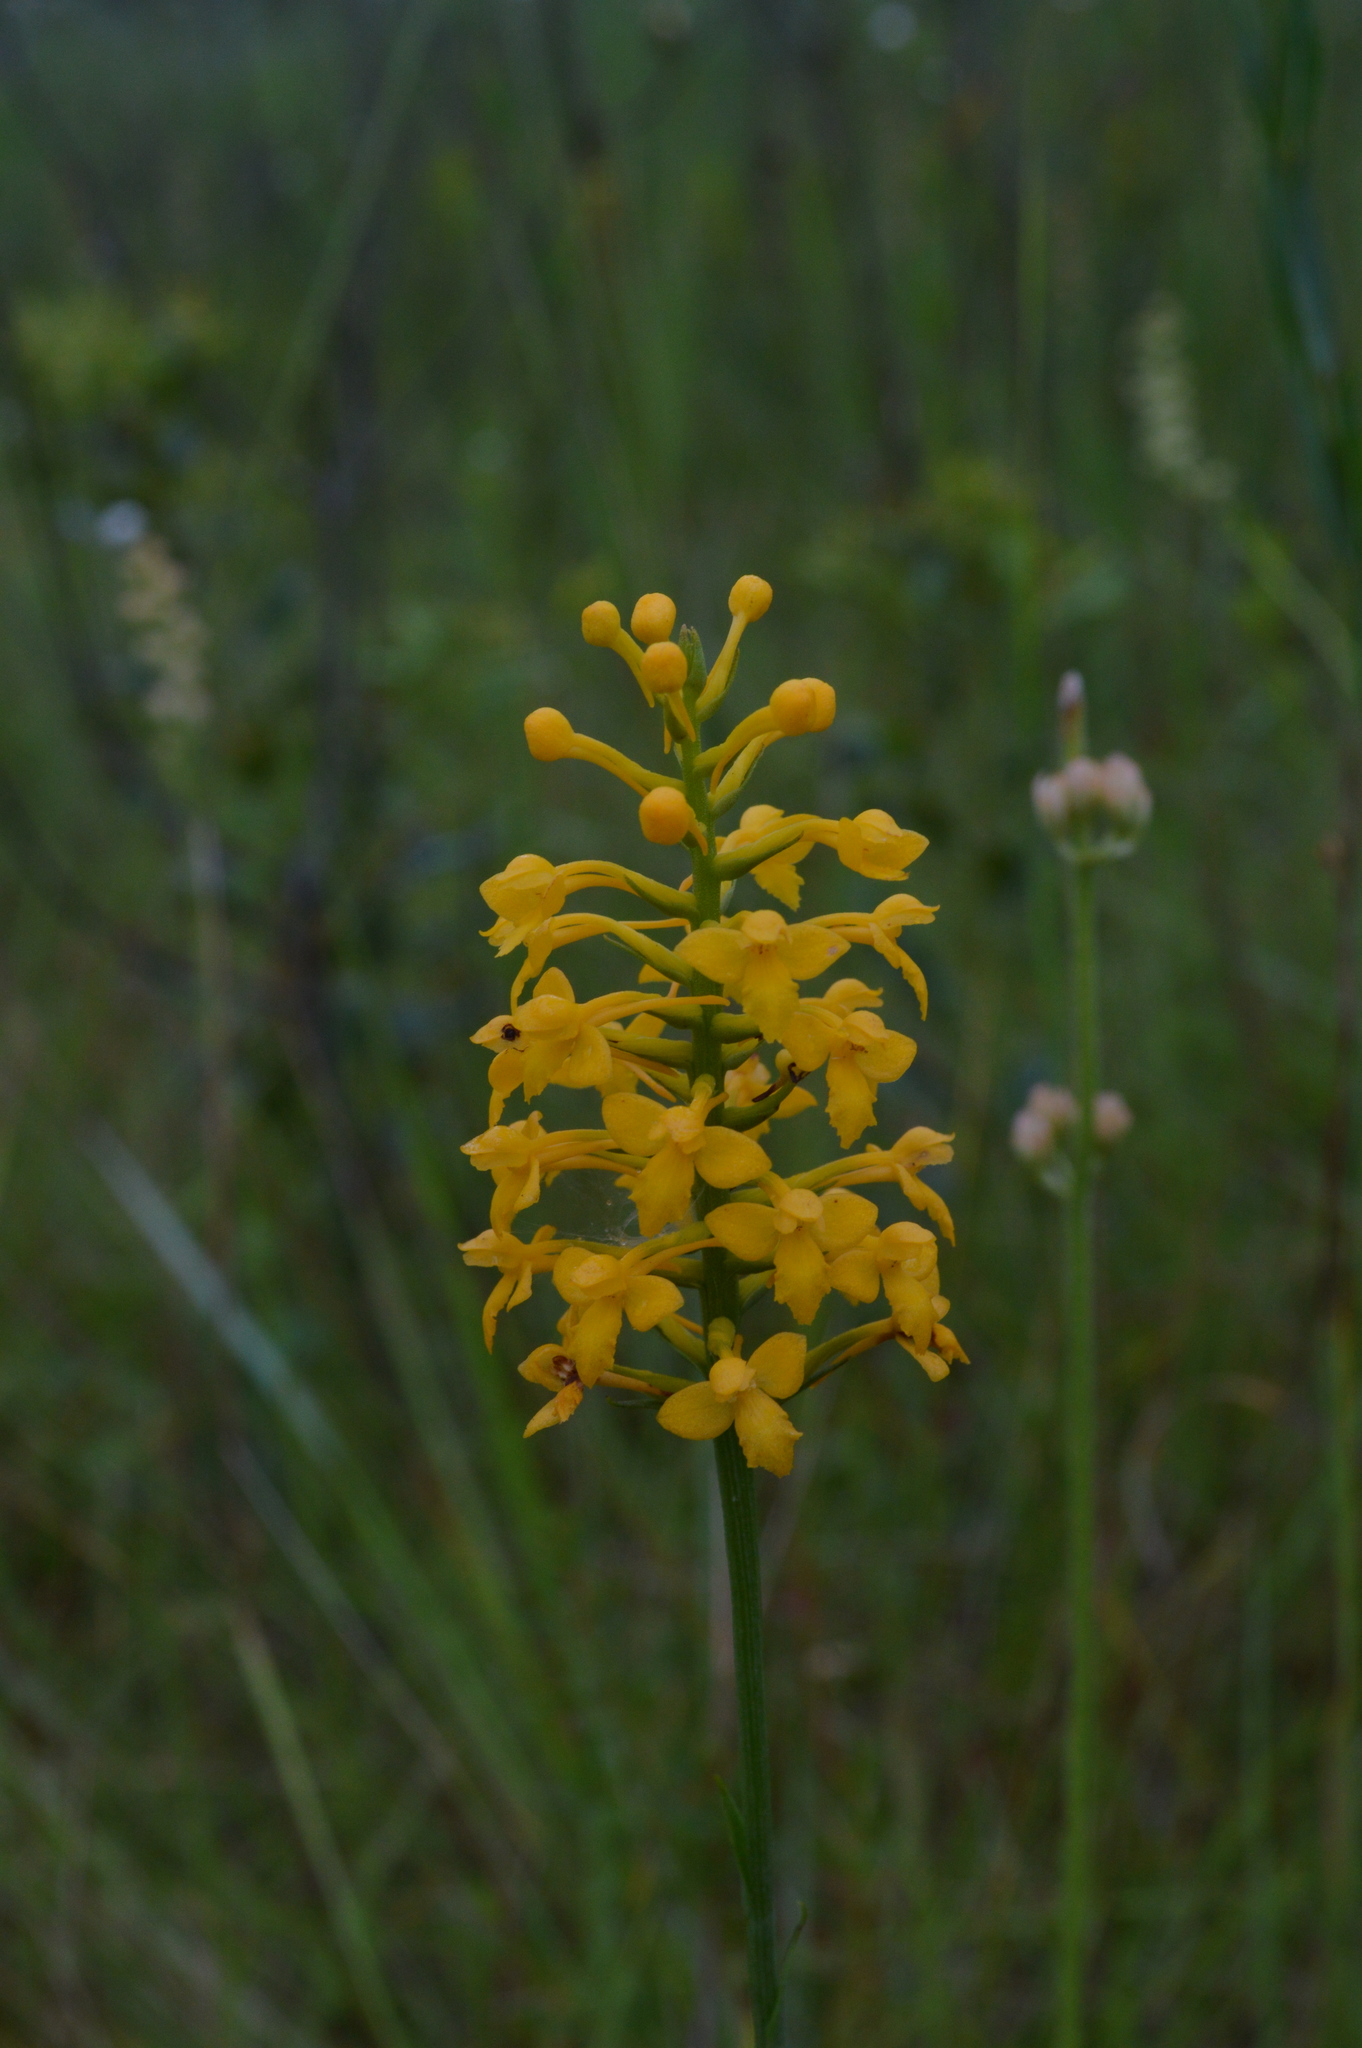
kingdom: Plantae
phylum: Tracheophyta
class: Liliopsida
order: Asparagales
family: Orchidaceae
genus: Platanthera
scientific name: Platanthera integra
